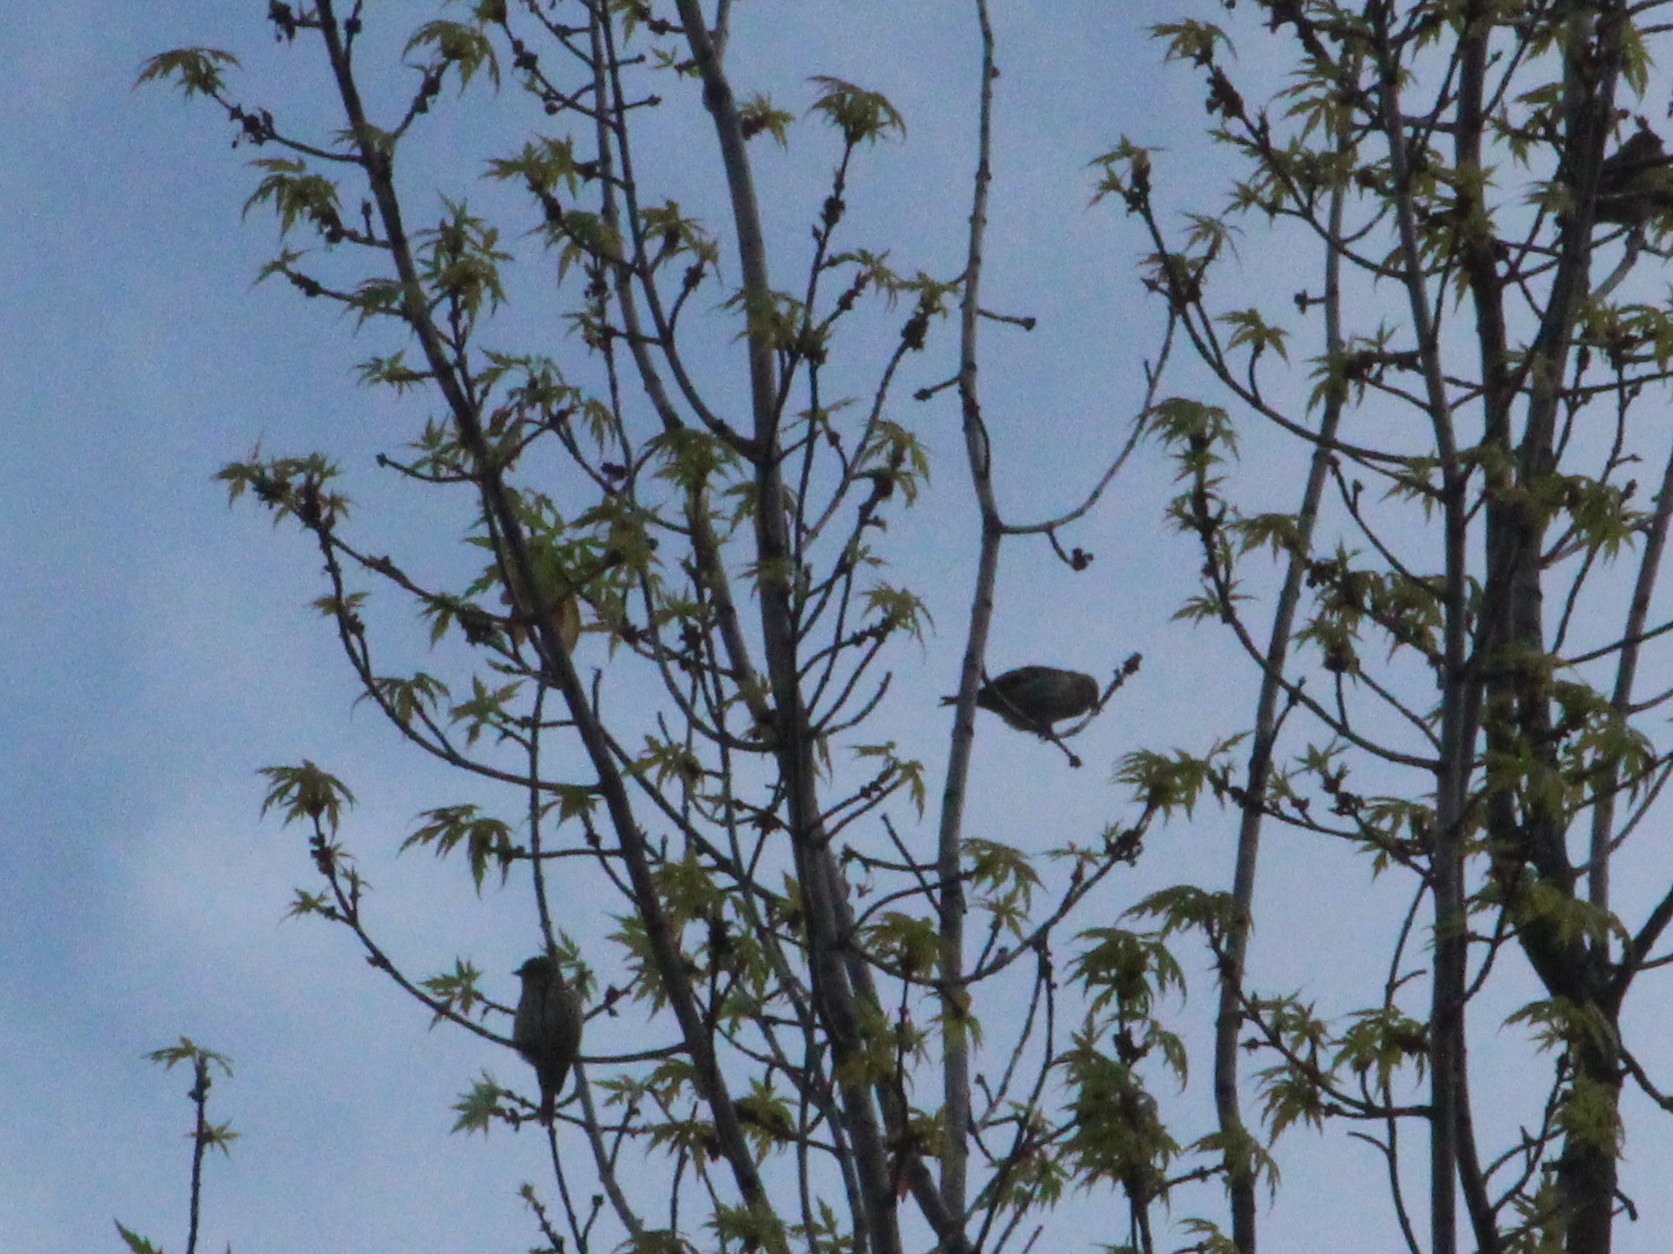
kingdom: Animalia
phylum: Chordata
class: Aves
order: Passeriformes
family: Fringillidae
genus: Spinus
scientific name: Spinus
